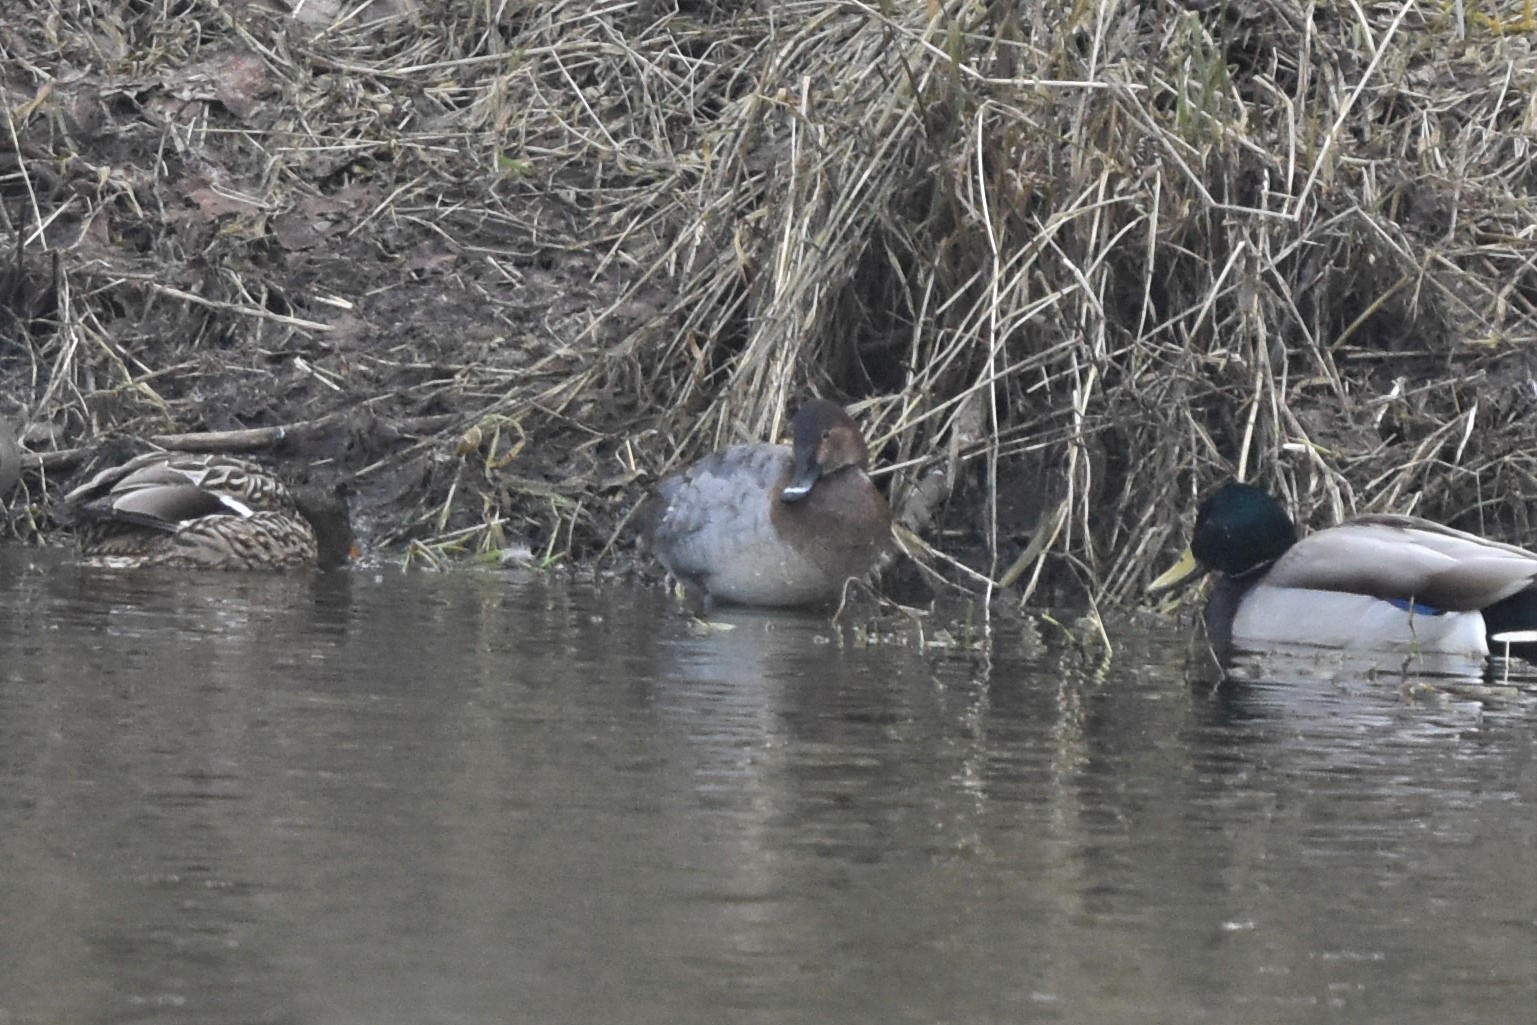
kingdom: Animalia
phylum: Chordata
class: Aves
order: Anseriformes
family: Anatidae
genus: Aythya
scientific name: Aythya ferina
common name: Common pochard
